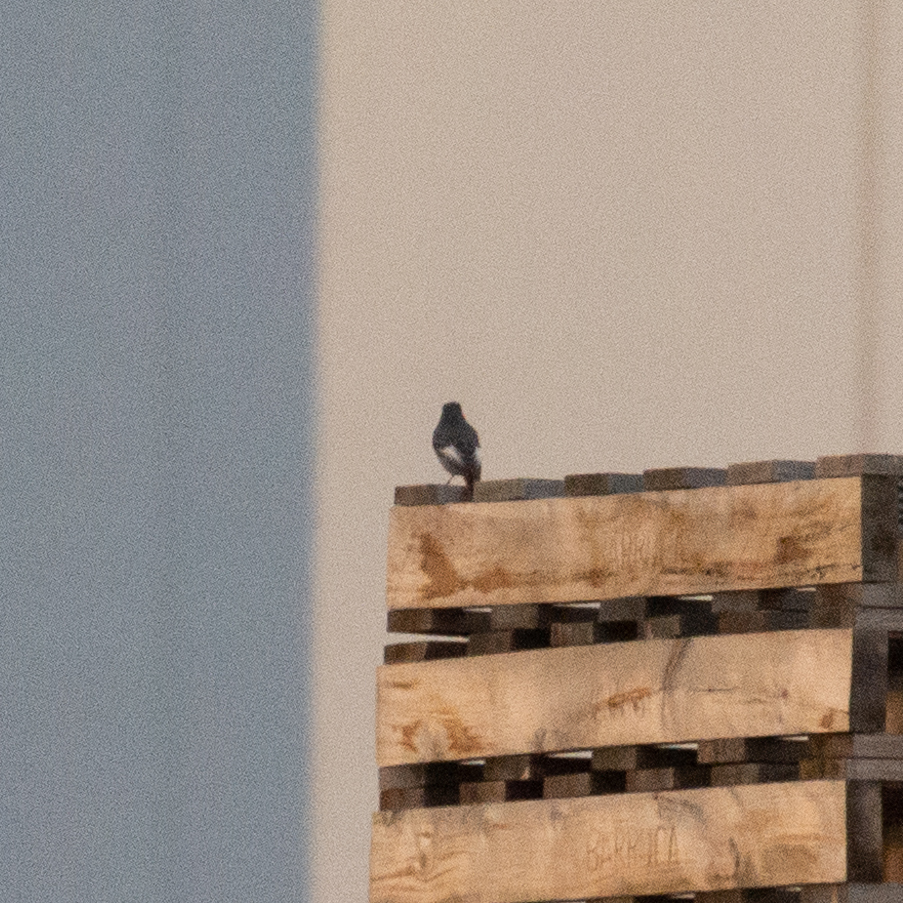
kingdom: Animalia
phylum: Chordata
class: Aves
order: Passeriformes
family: Muscicapidae
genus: Phoenicurus
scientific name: Phoenicurus ochruros
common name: Black redstart
